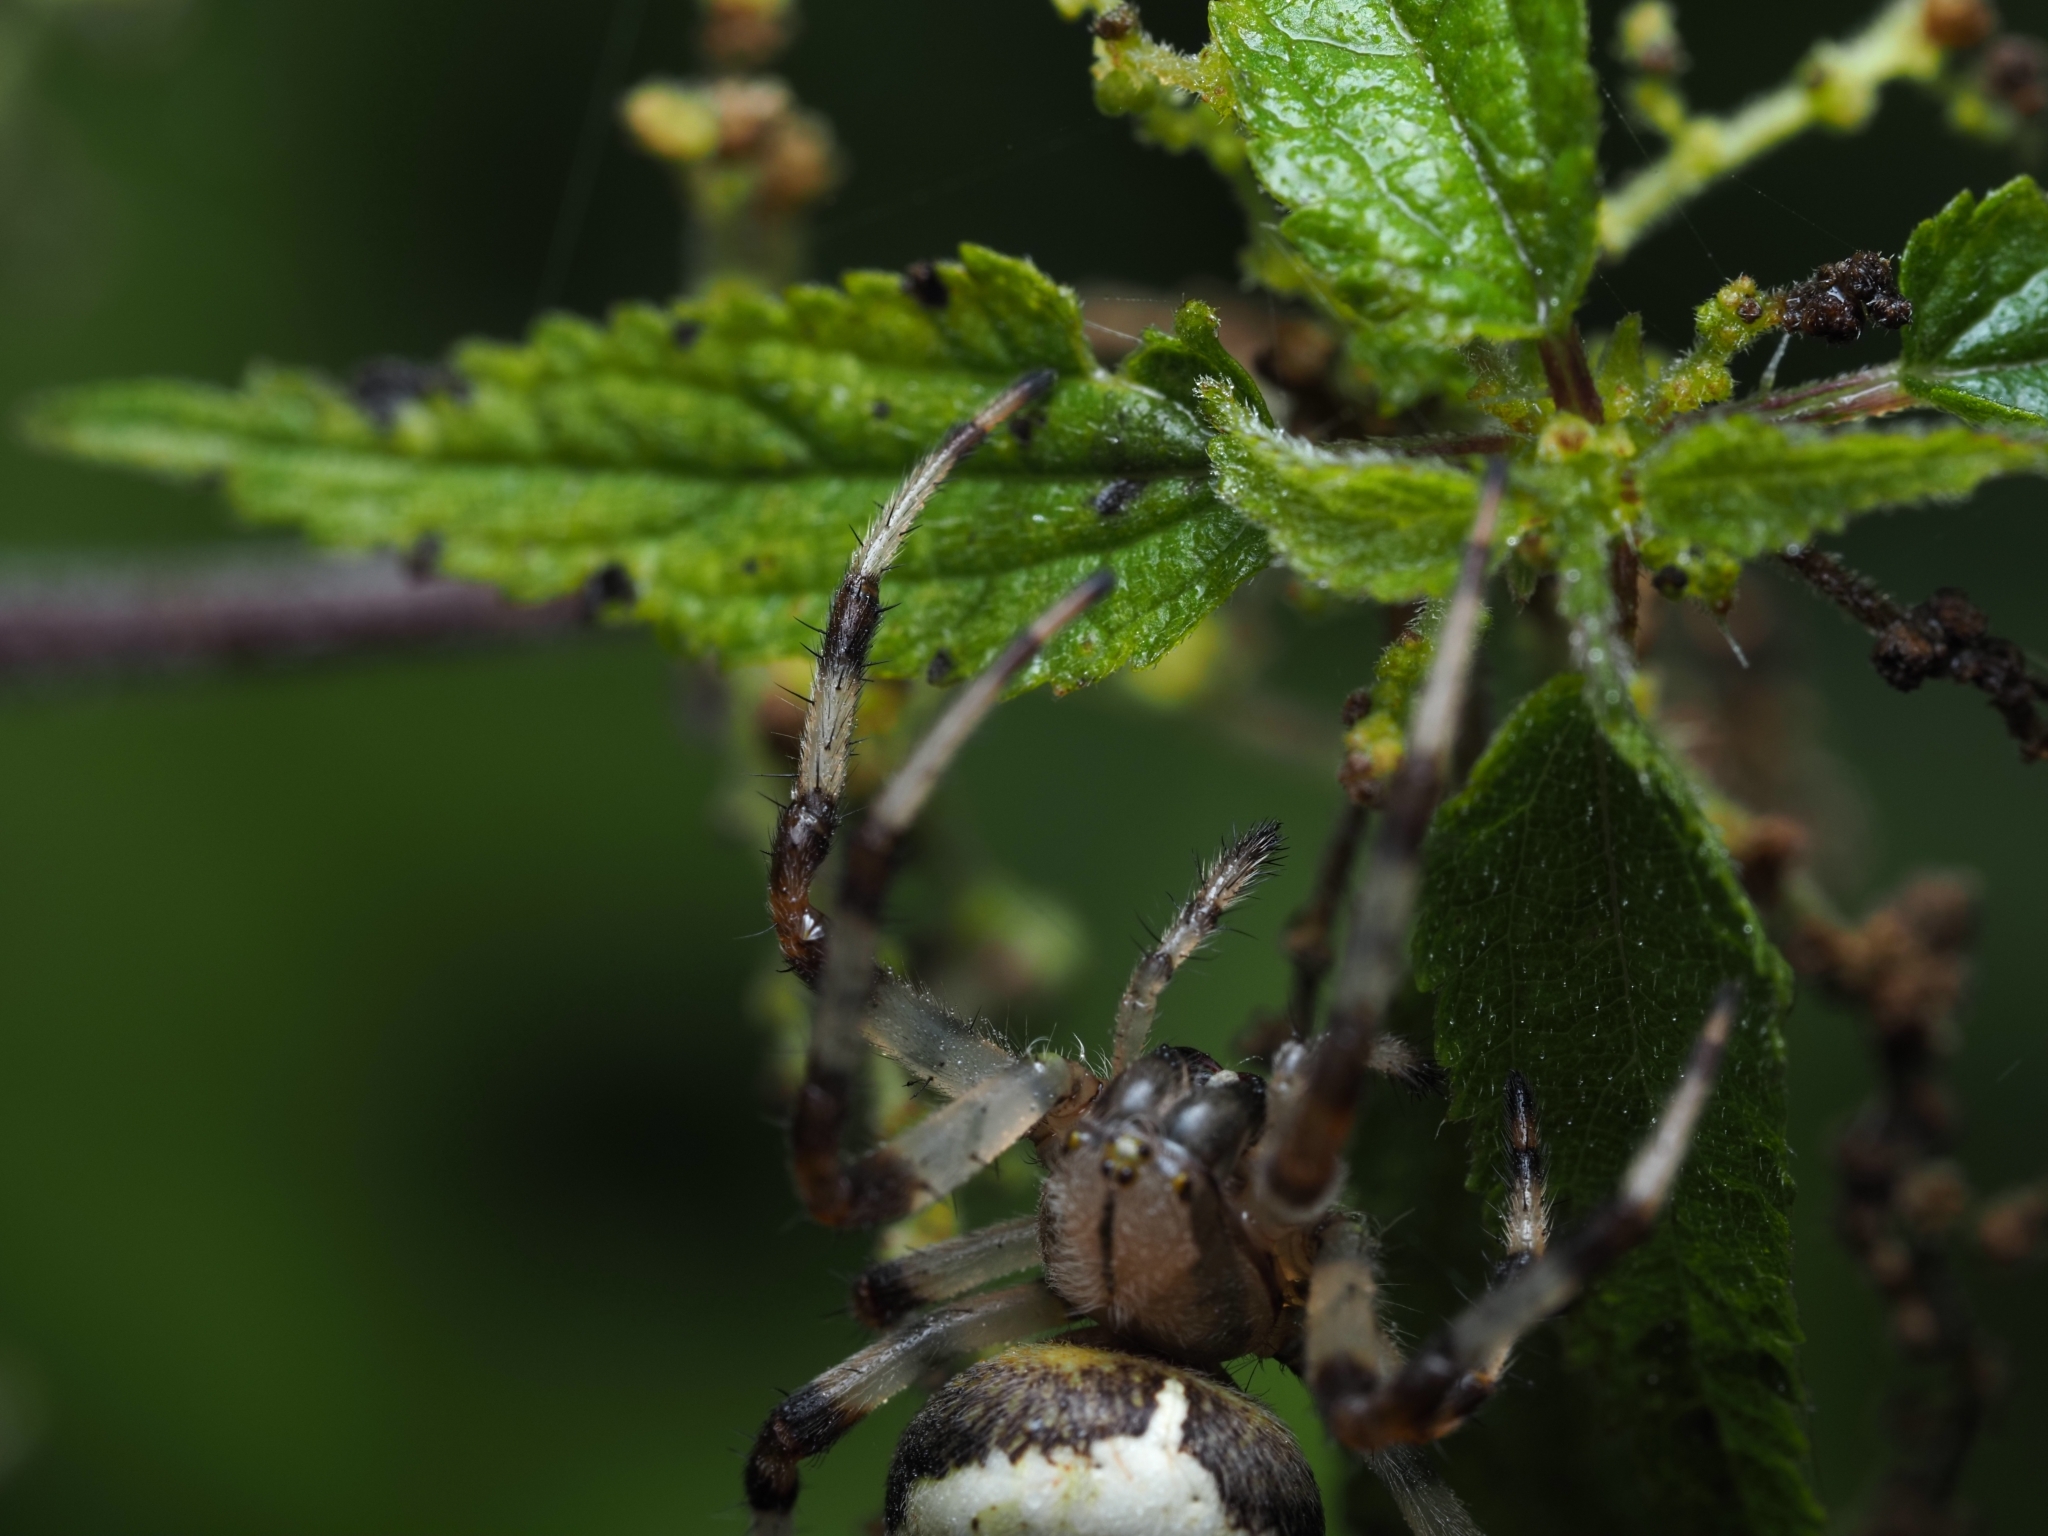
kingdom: Animalia
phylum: Arthropoda
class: Arachnida
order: Araneae
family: Araneidae
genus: Araneus
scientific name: Araneus marmoreus
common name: Marbled orbweaver
